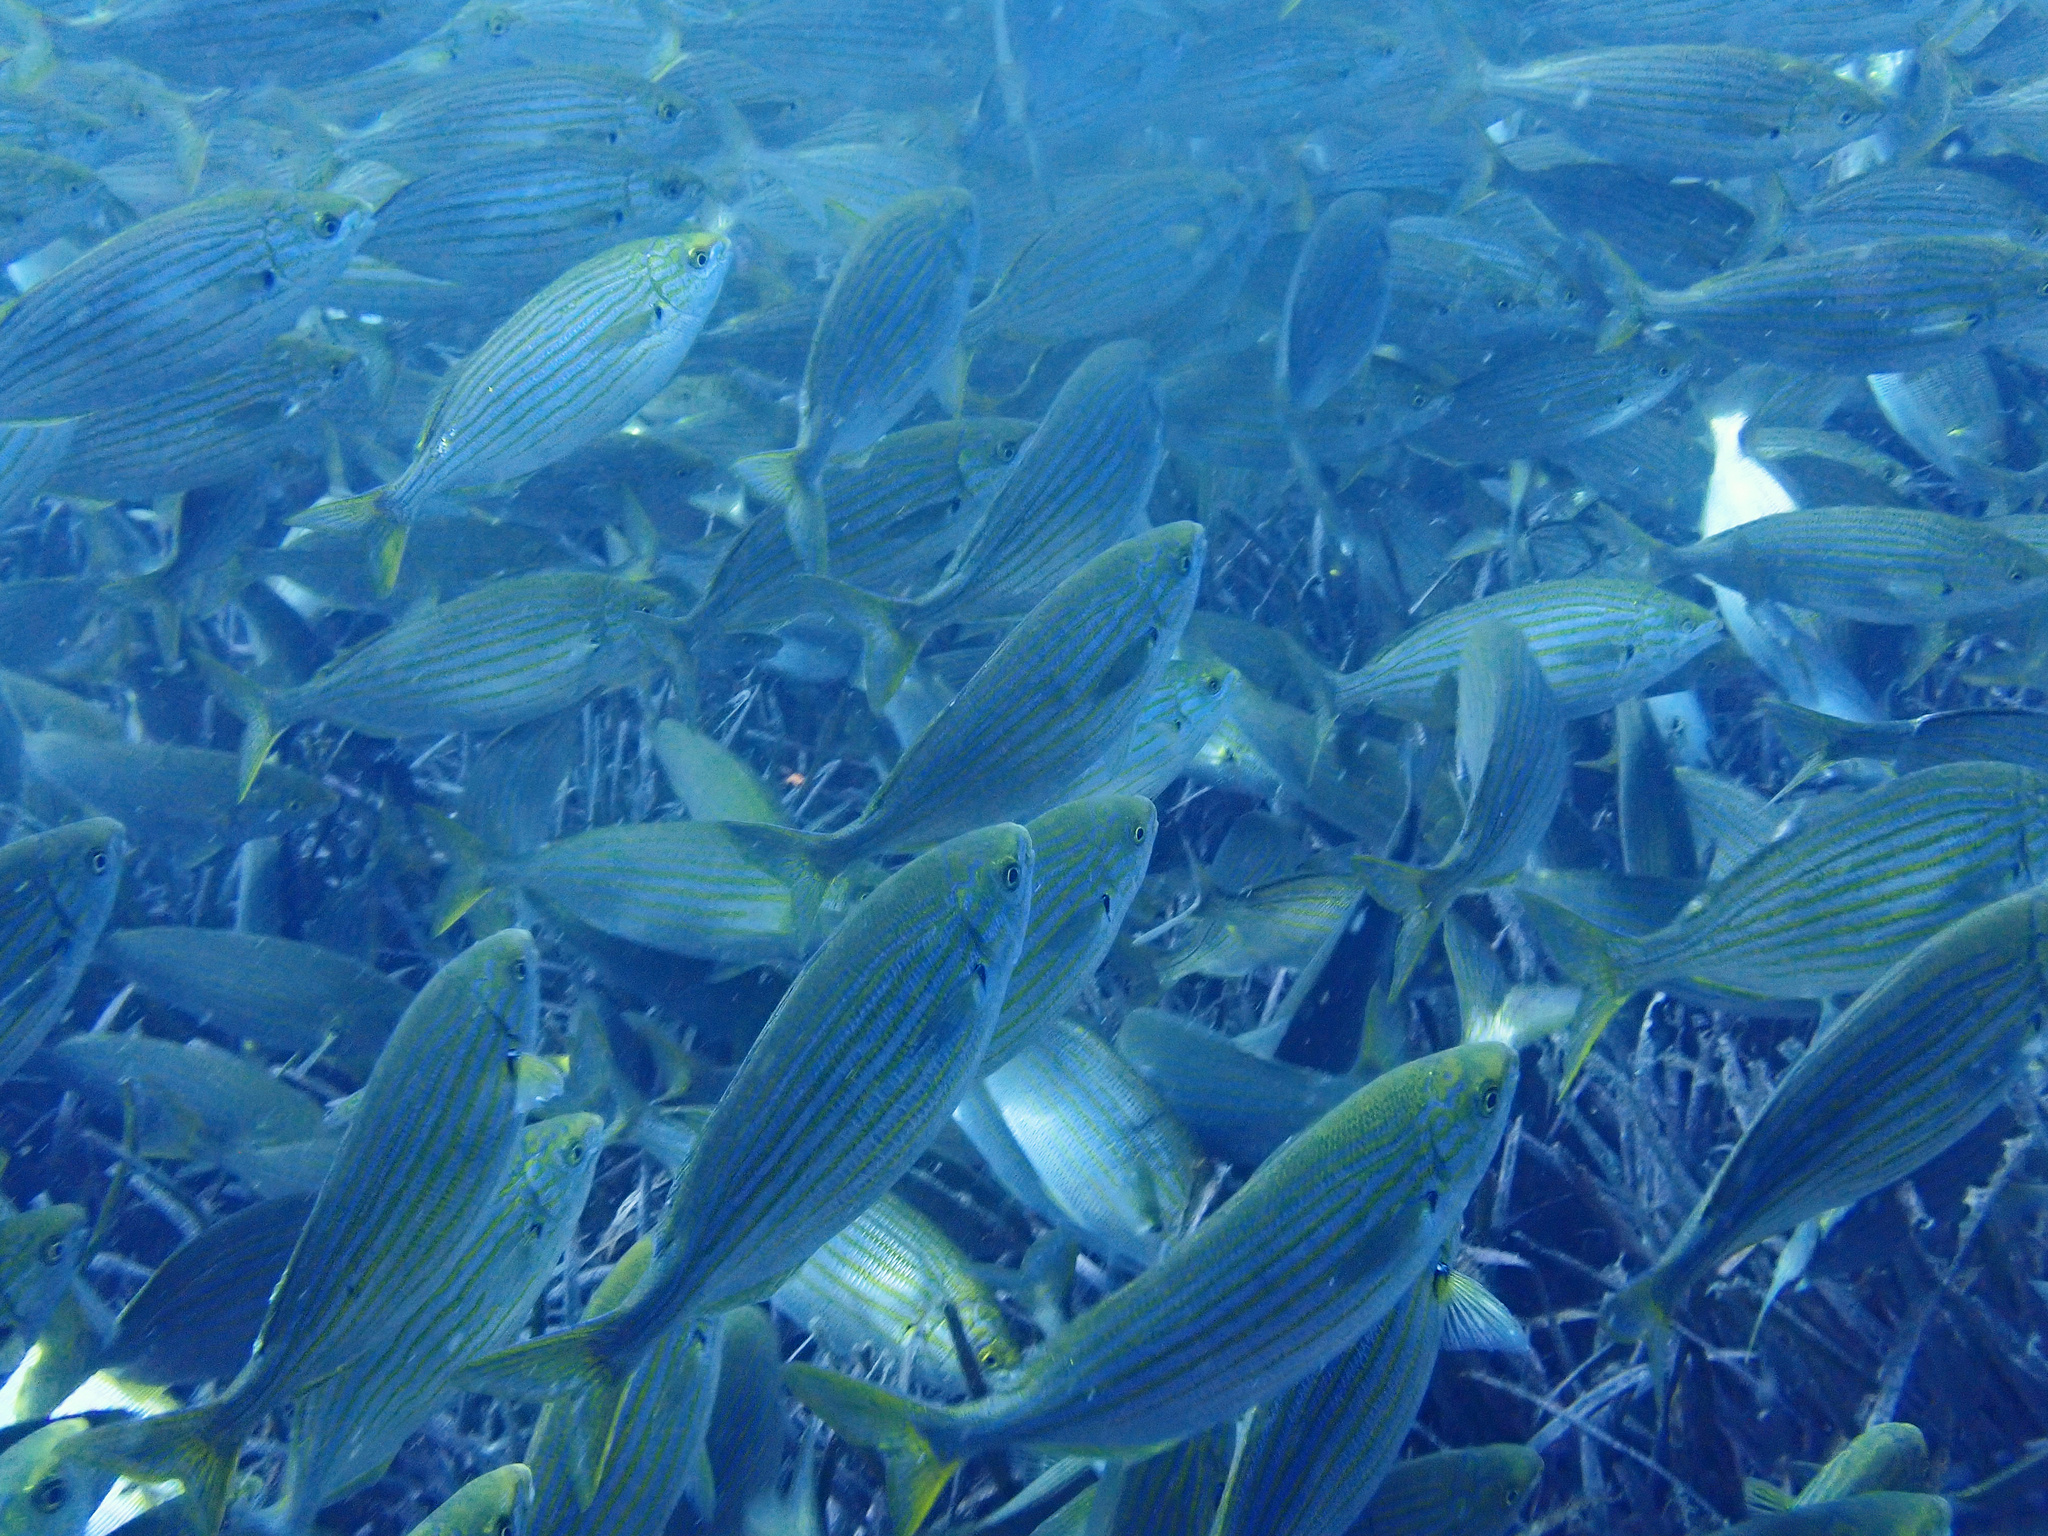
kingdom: Animalia
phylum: Chordata
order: Perciformes
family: Sparidae
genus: Sarpa
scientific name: Sarpa salpa
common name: Salema
